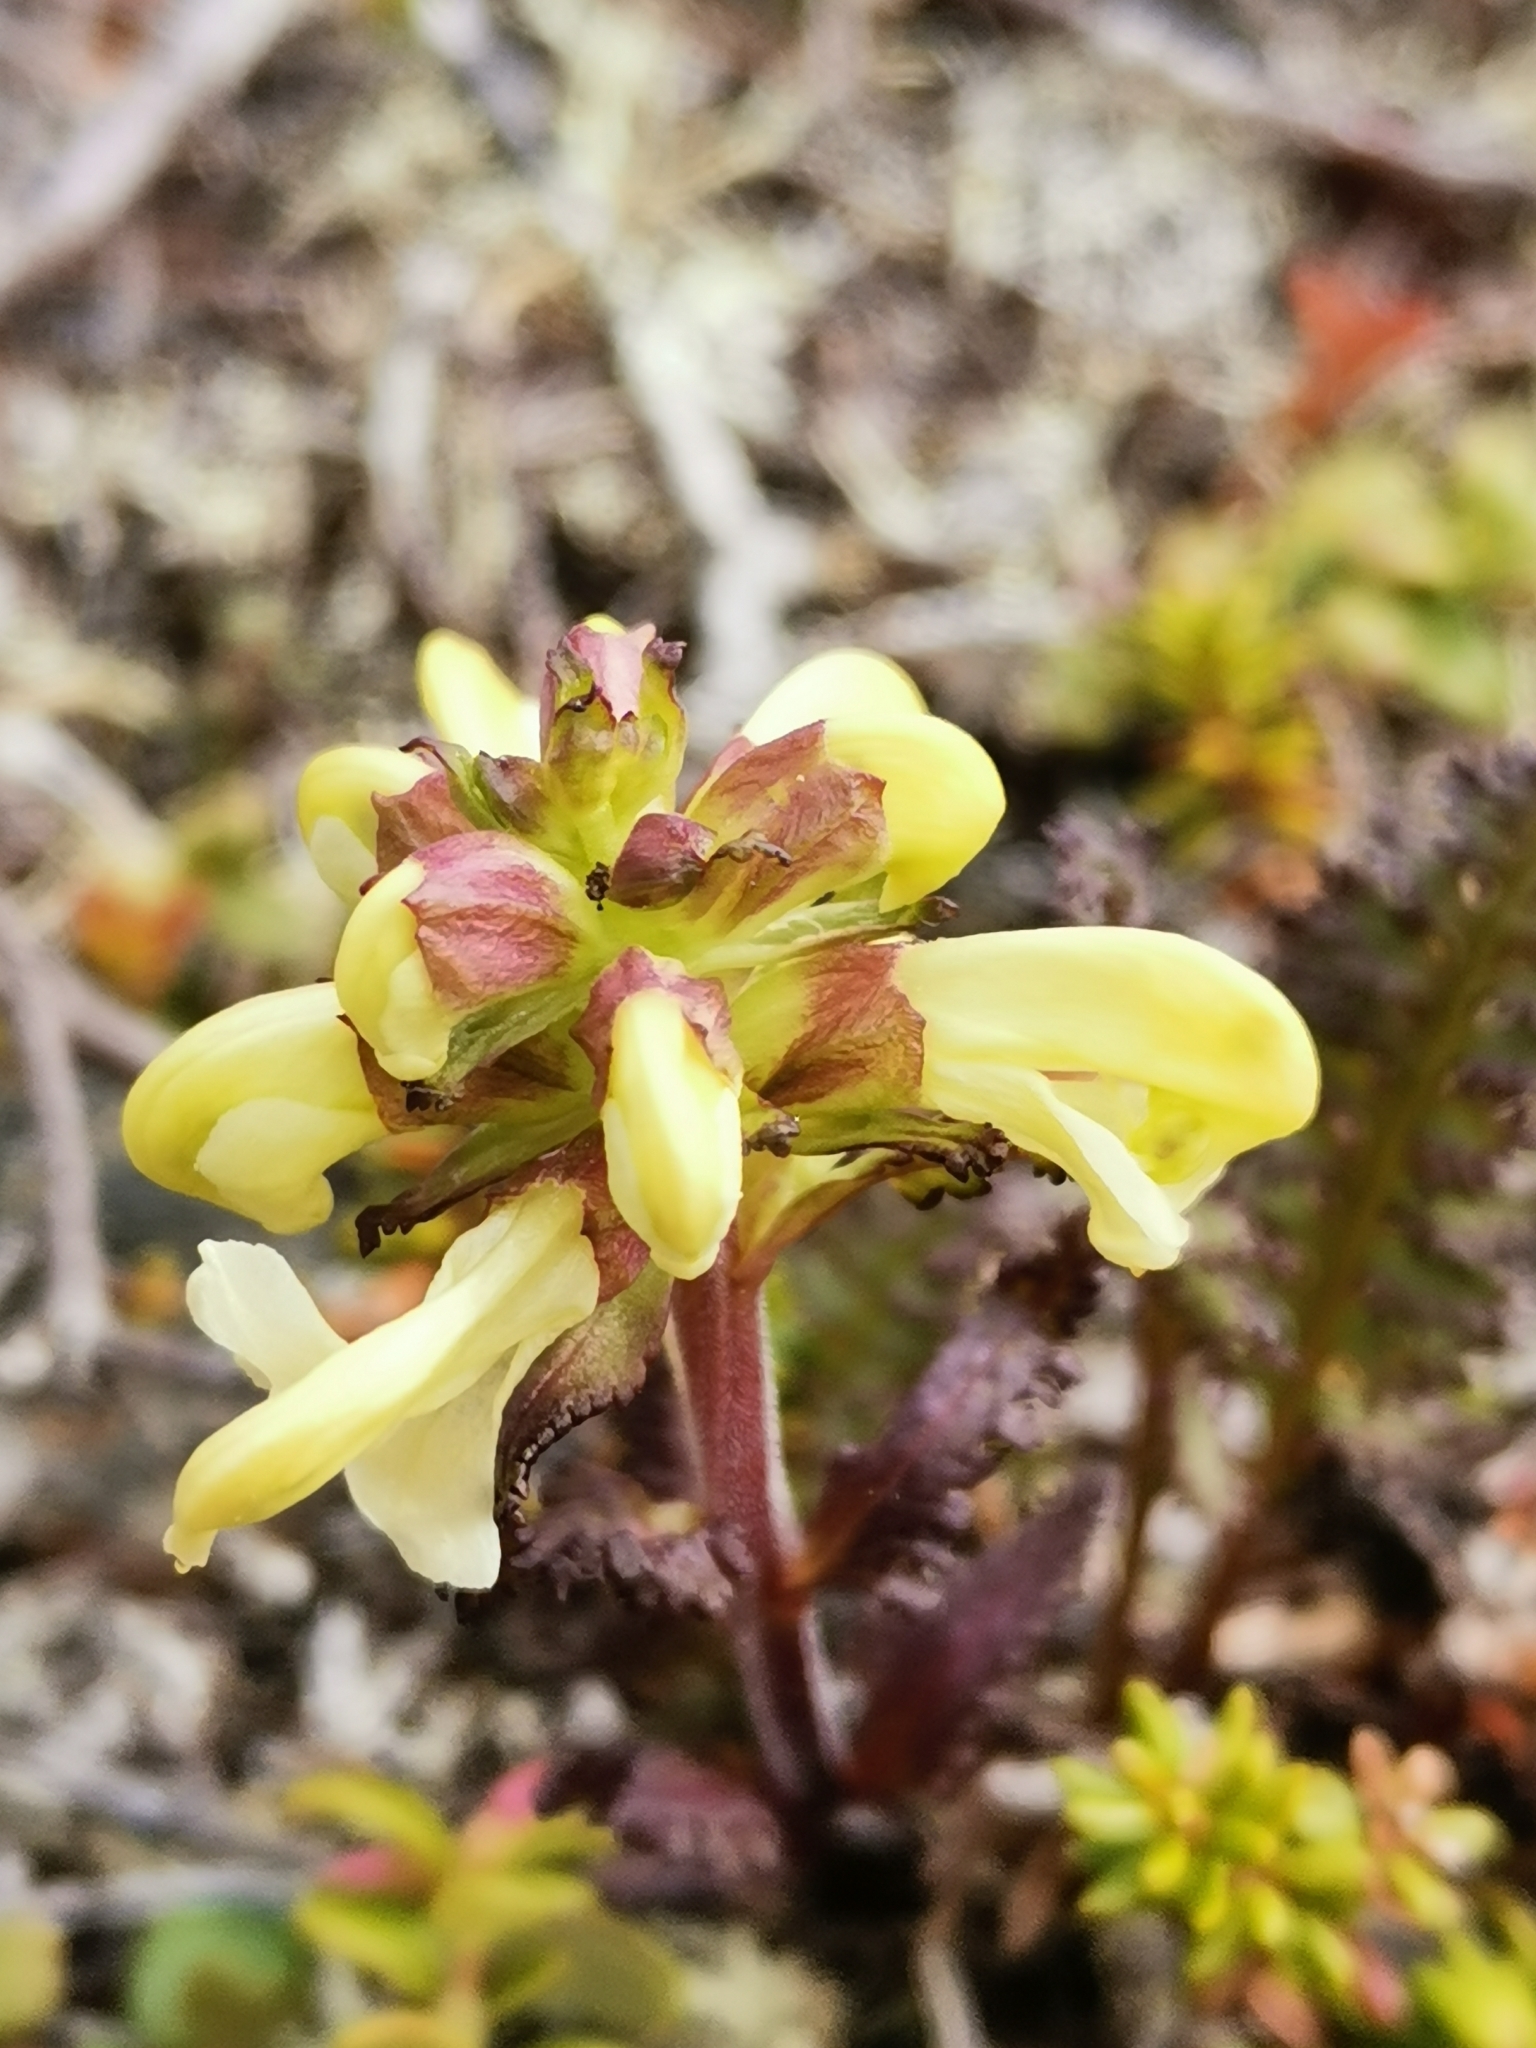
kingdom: Plantae
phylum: Tracheophyta
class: Magnoliopsida
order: Lamiales
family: Orobanchaceae
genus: Pedicularis
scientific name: Pedicularis lapponica
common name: Lapland lousewort
